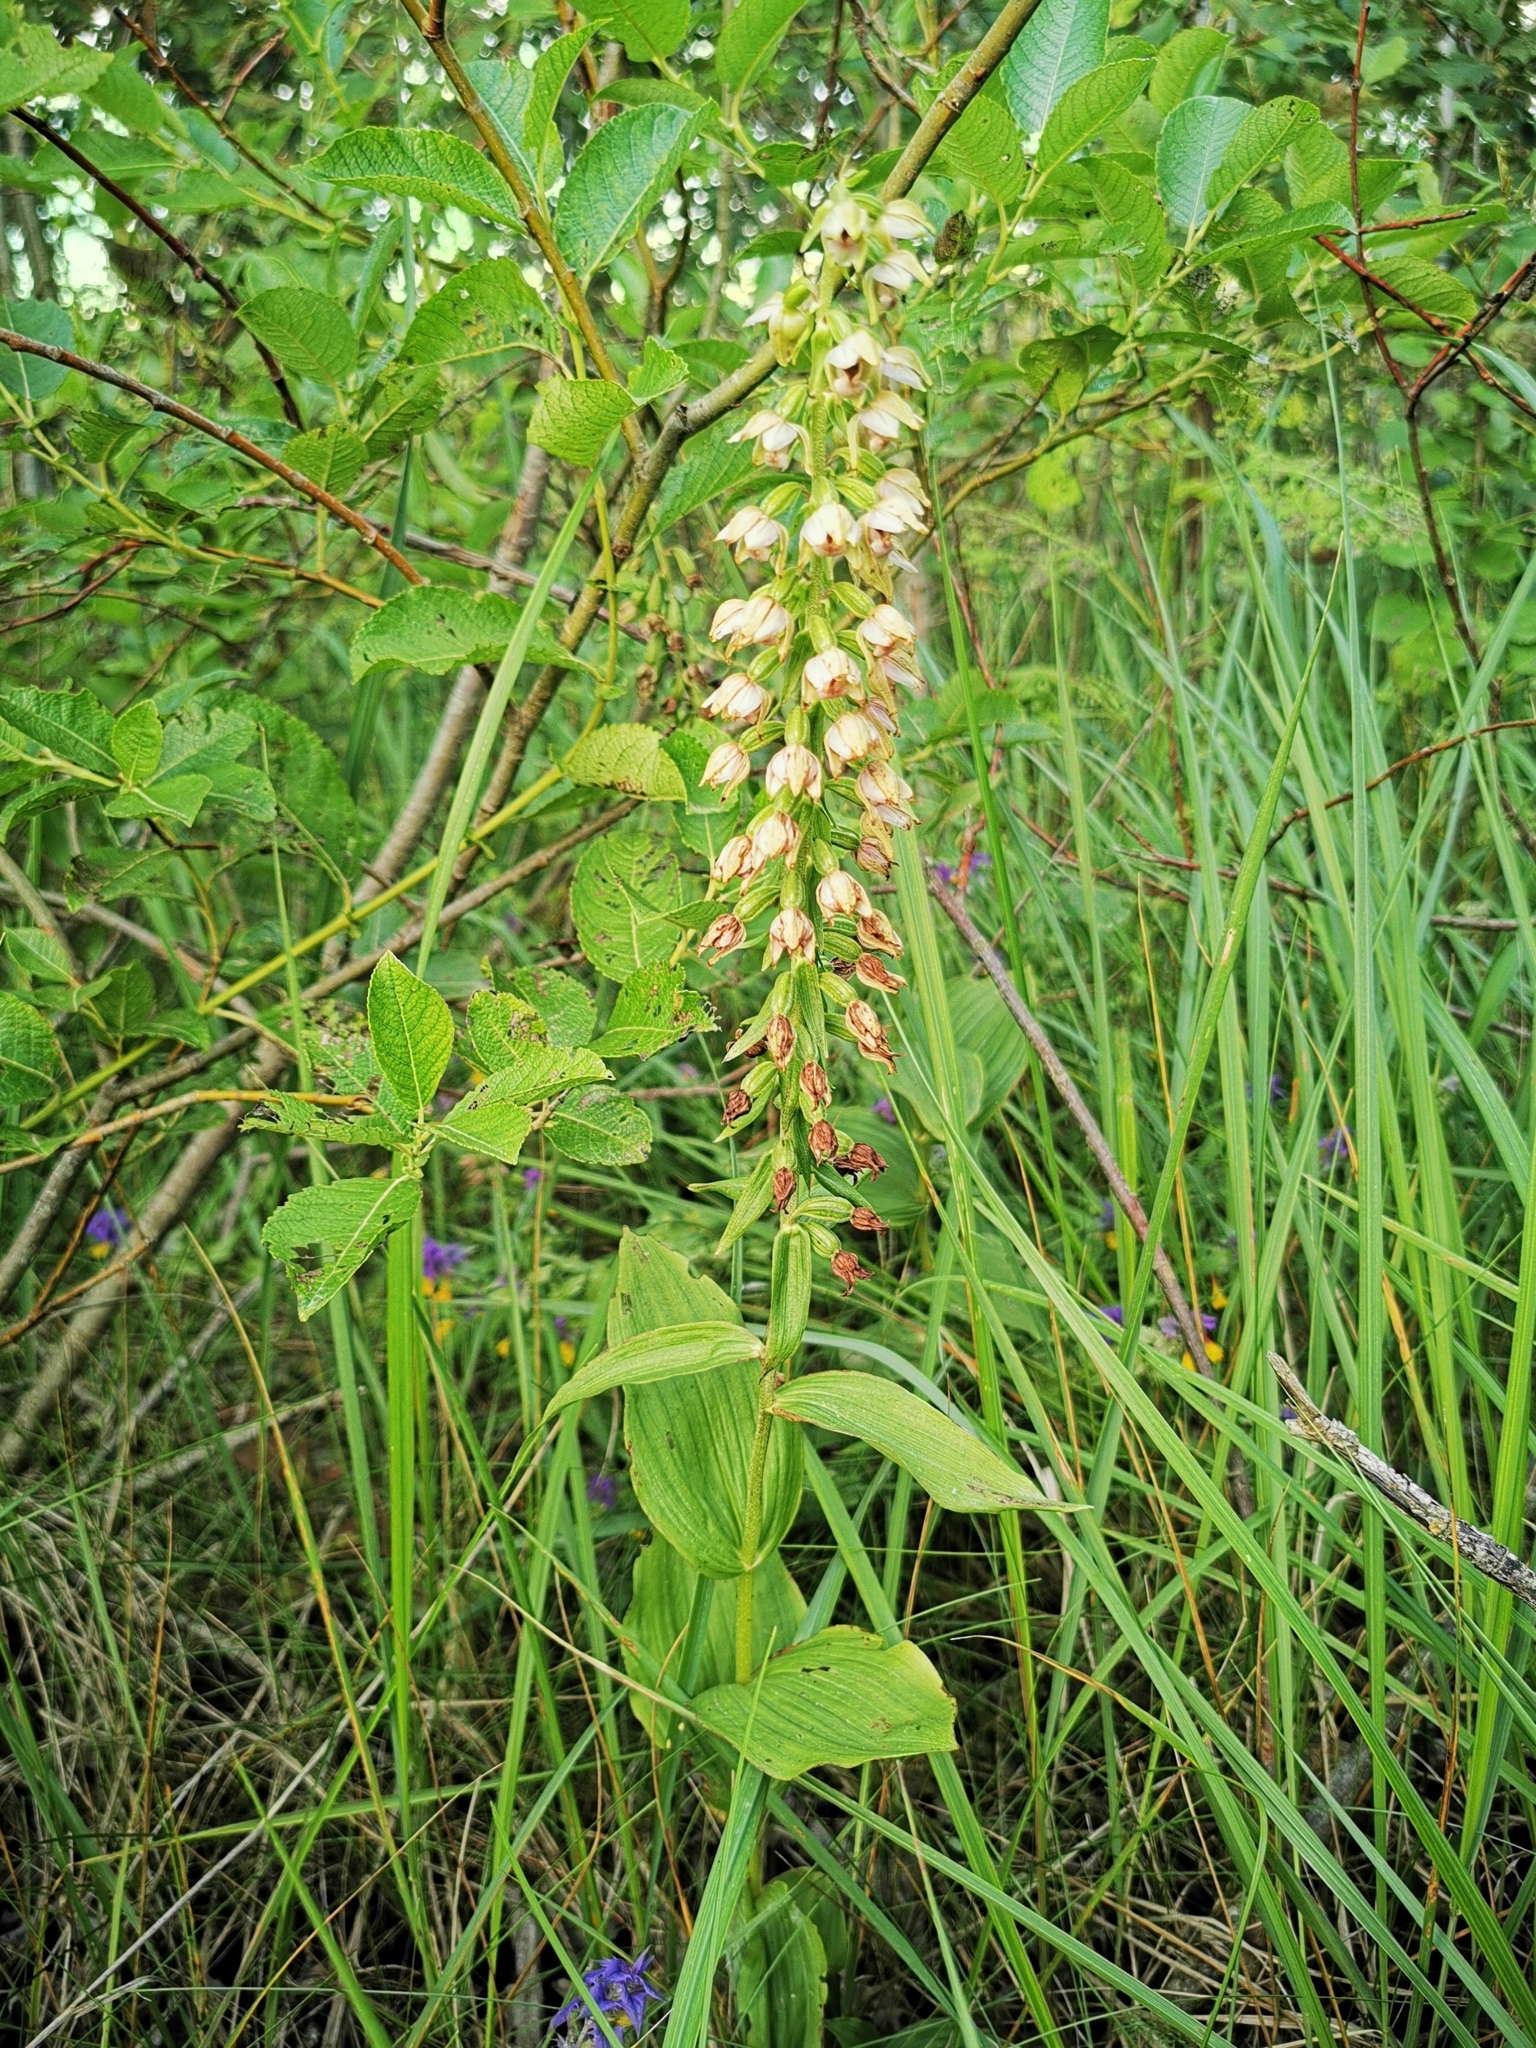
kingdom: Plantae
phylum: Tracheophyta
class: Liliopsida
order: Asparagales
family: Orchidaceae
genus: Epipactis
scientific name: Epipactis helleborine
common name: Broad-leaved helleborine
